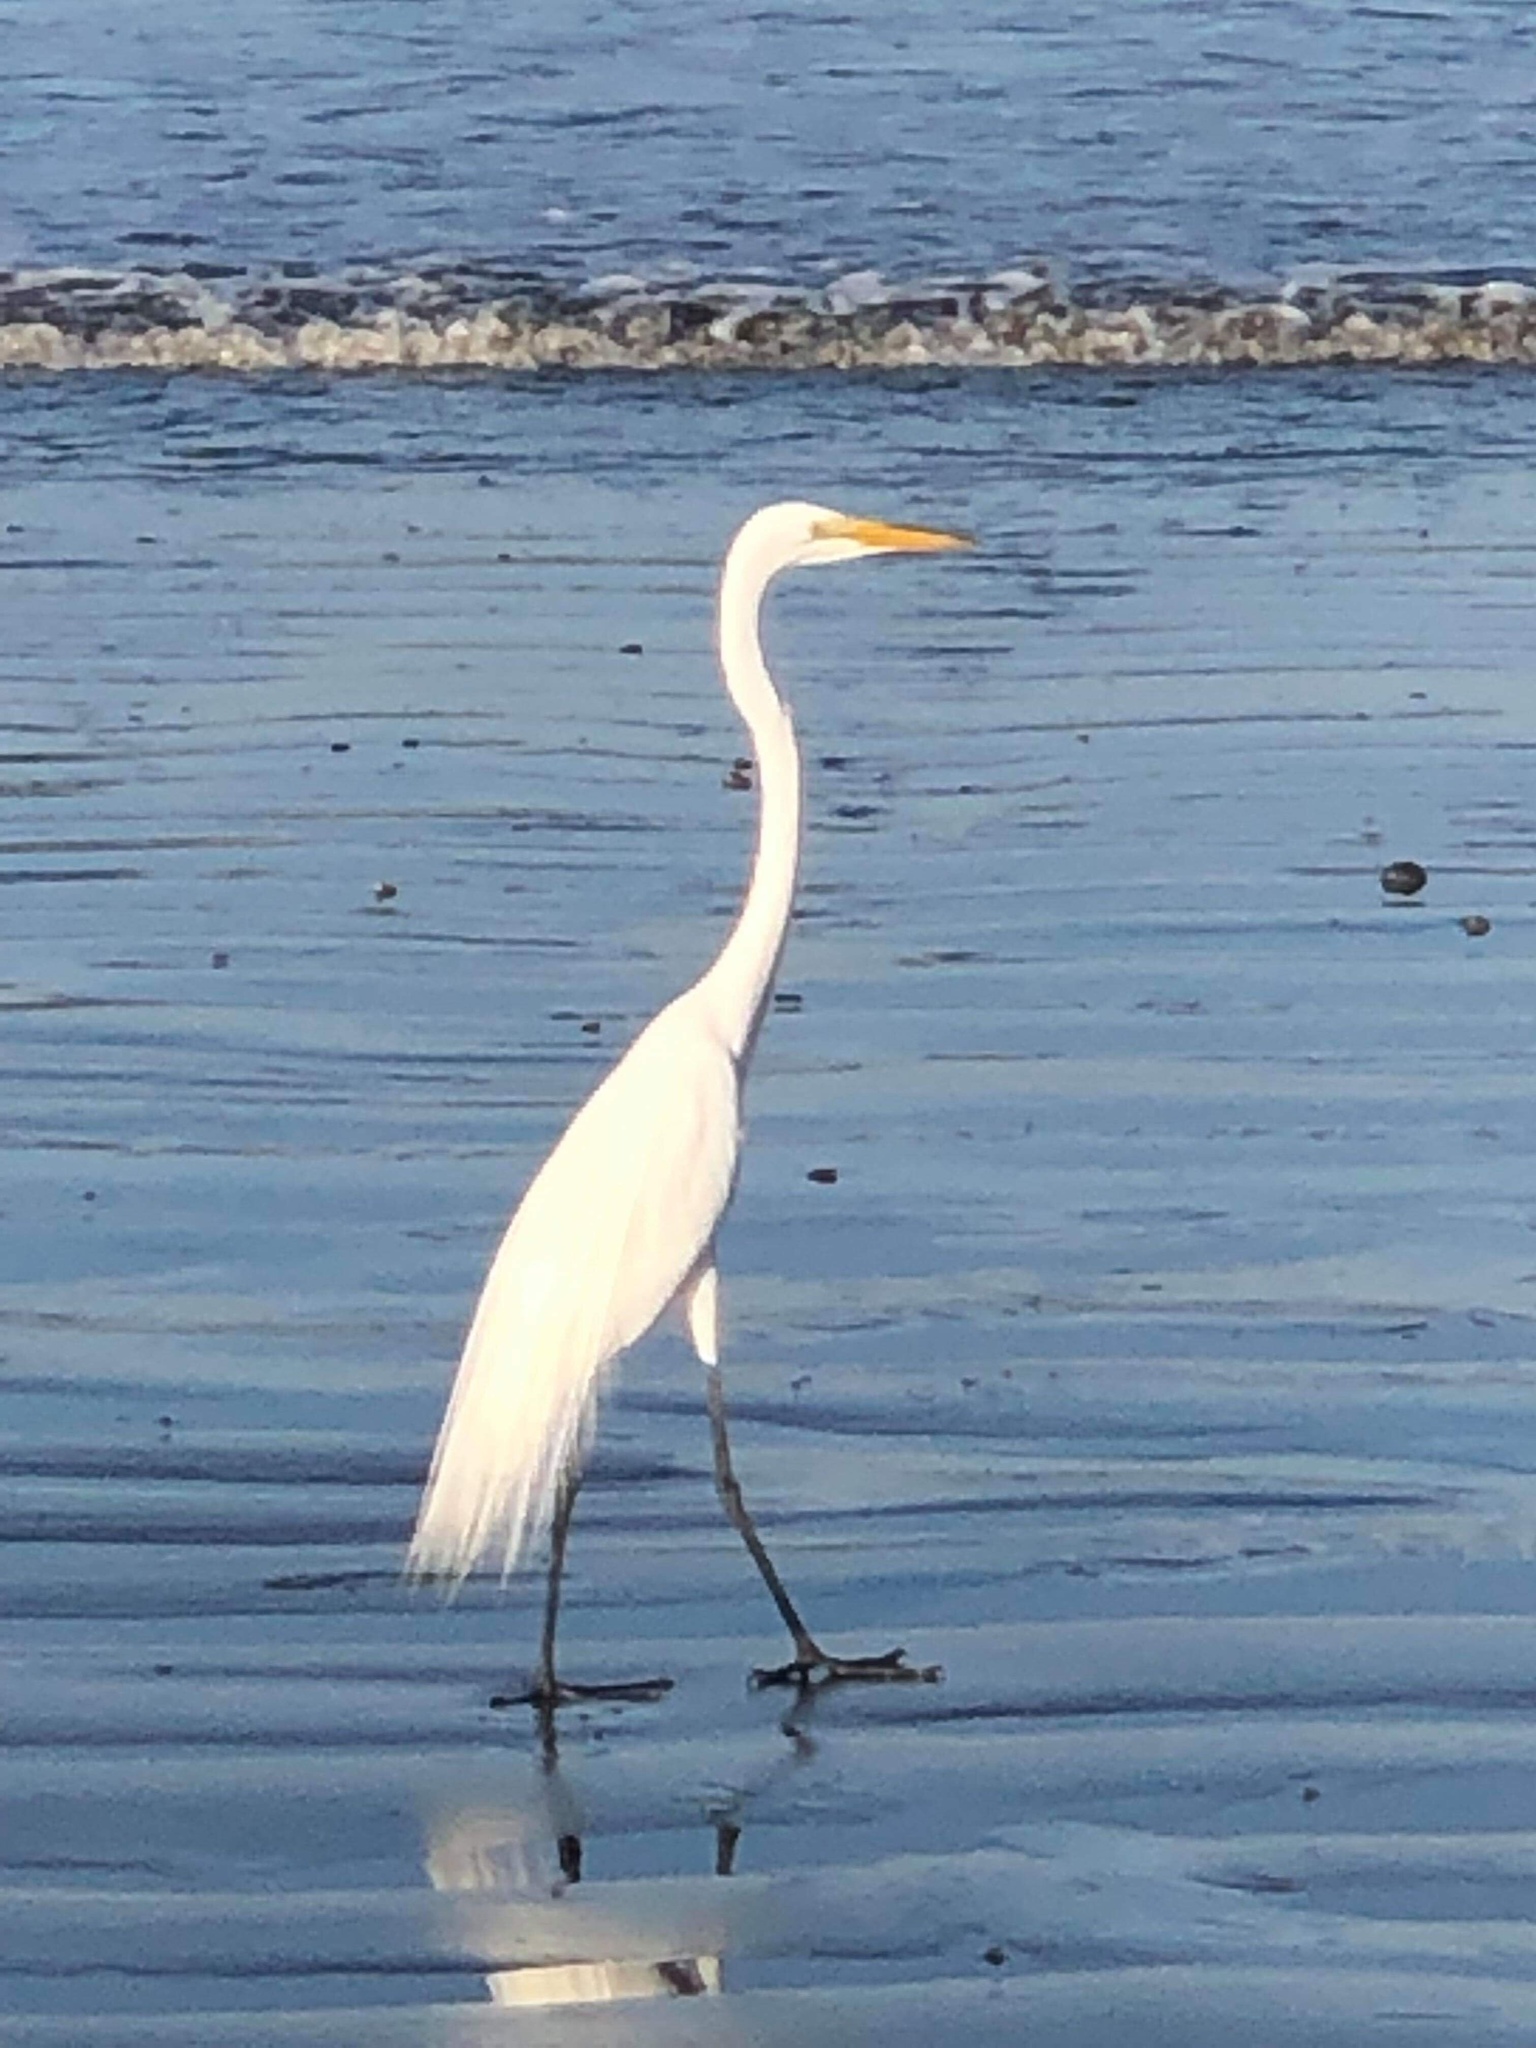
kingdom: Animalia
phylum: Chordata
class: Aves
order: Pelecaniformes
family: Ardeidae
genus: Ardea
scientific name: Ardea alba
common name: Great egret
